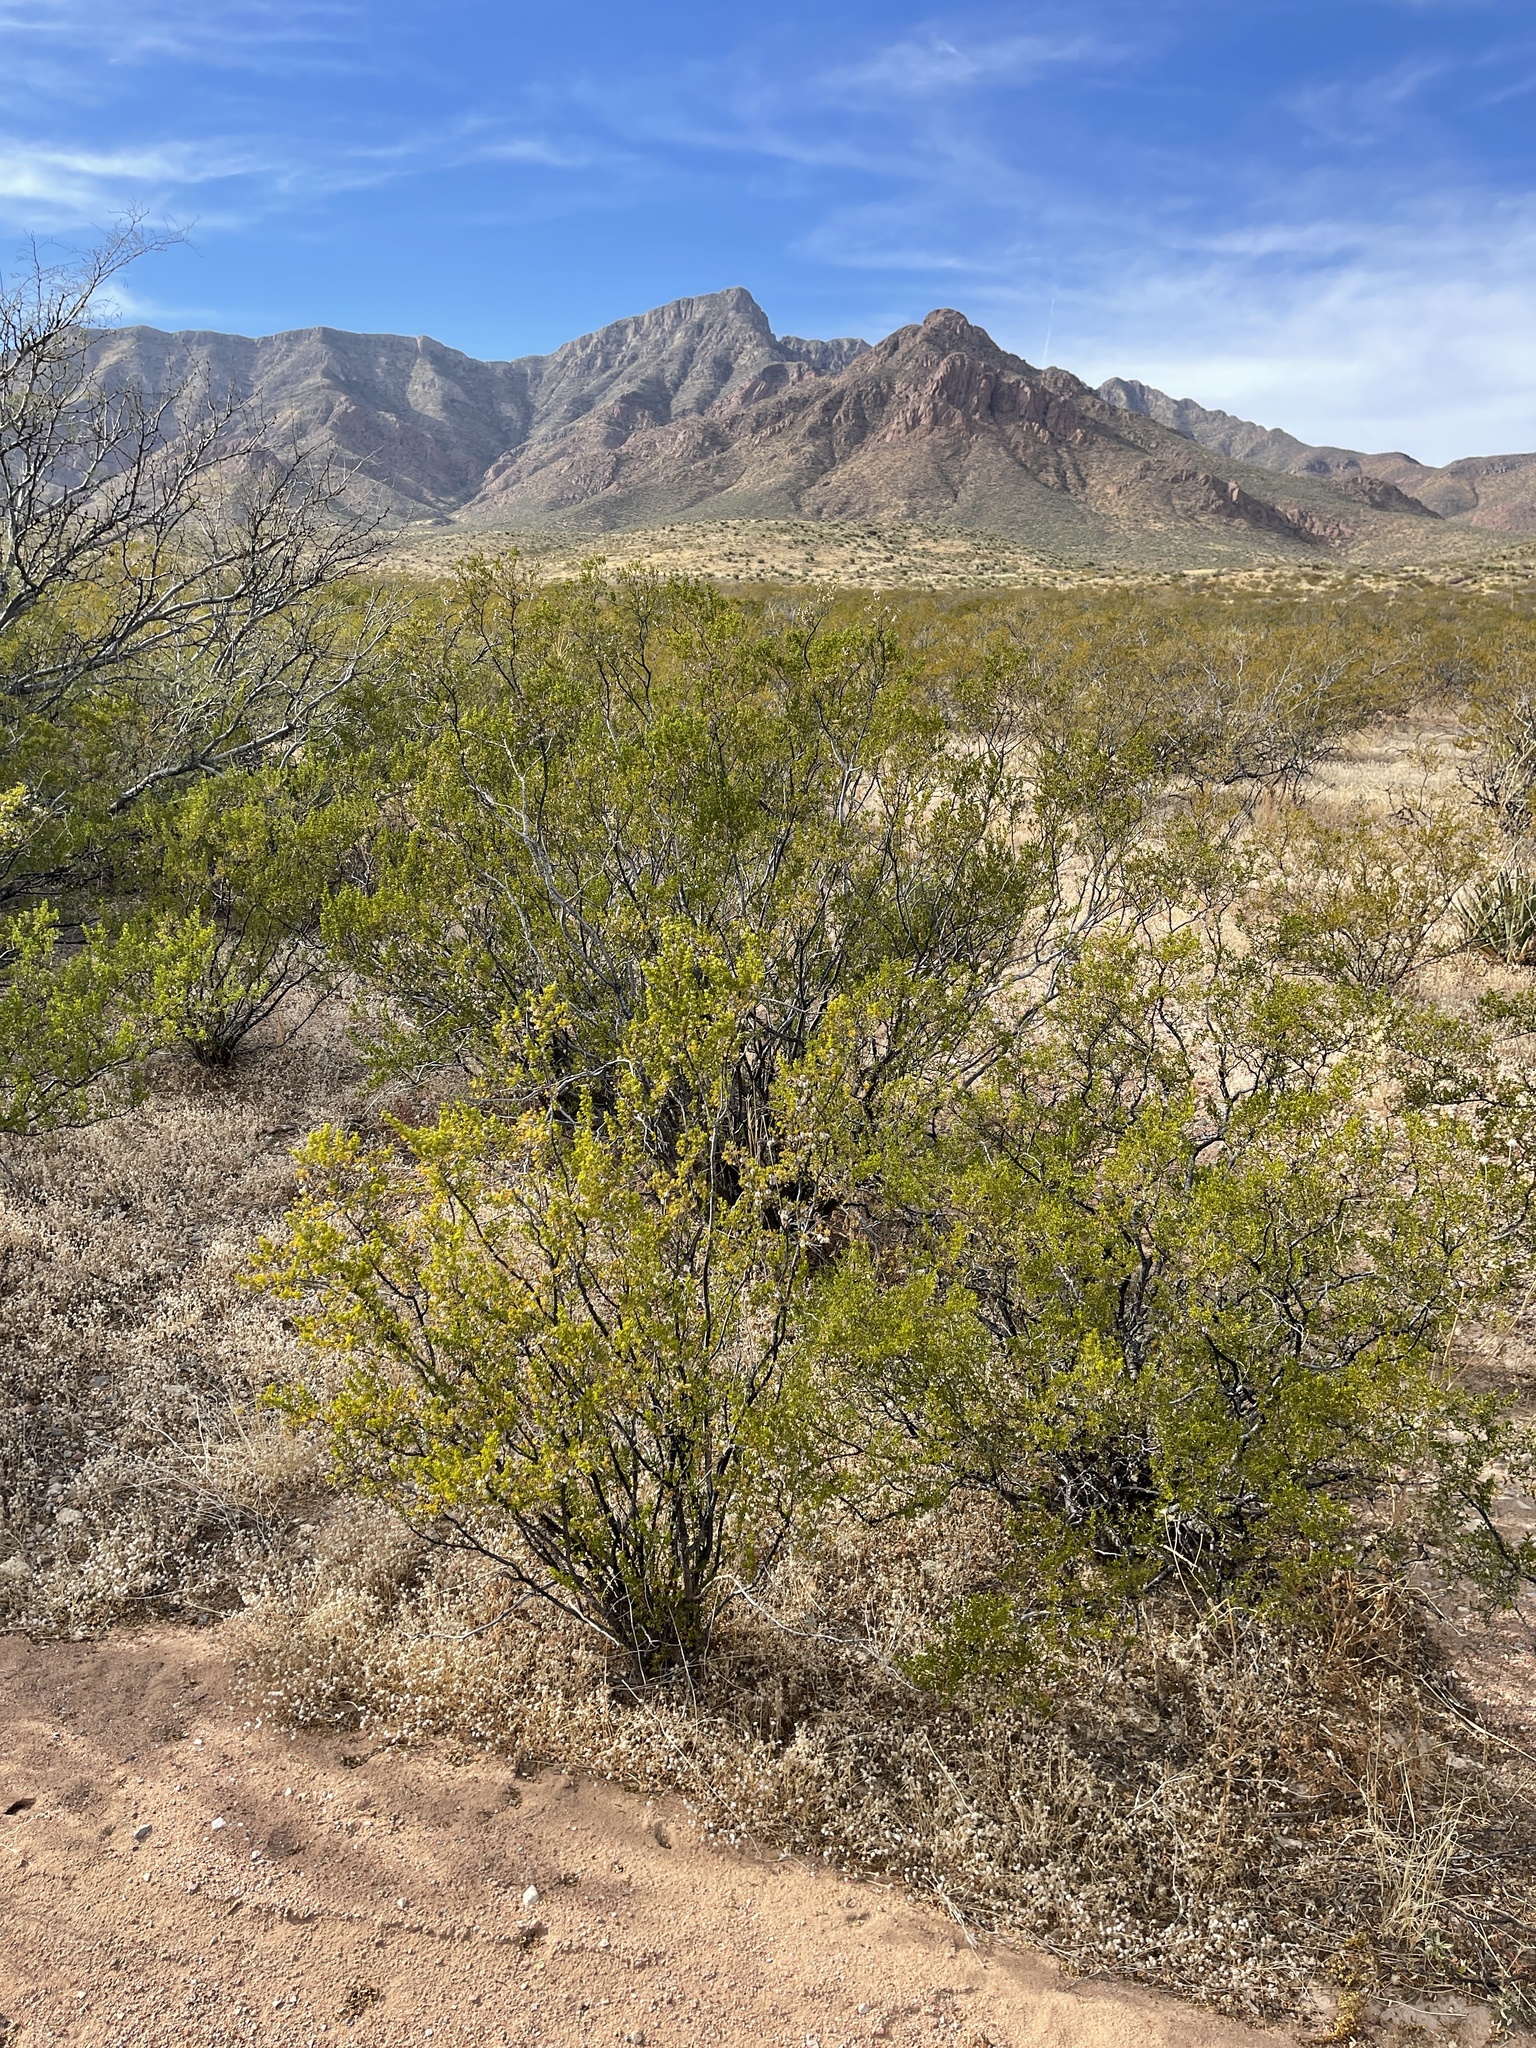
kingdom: Plantae
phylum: Tracheophyta
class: Magnoliopsida
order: Zygophyllales
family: Zygophyllaceae
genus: Larrea
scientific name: Larrea tridentata
